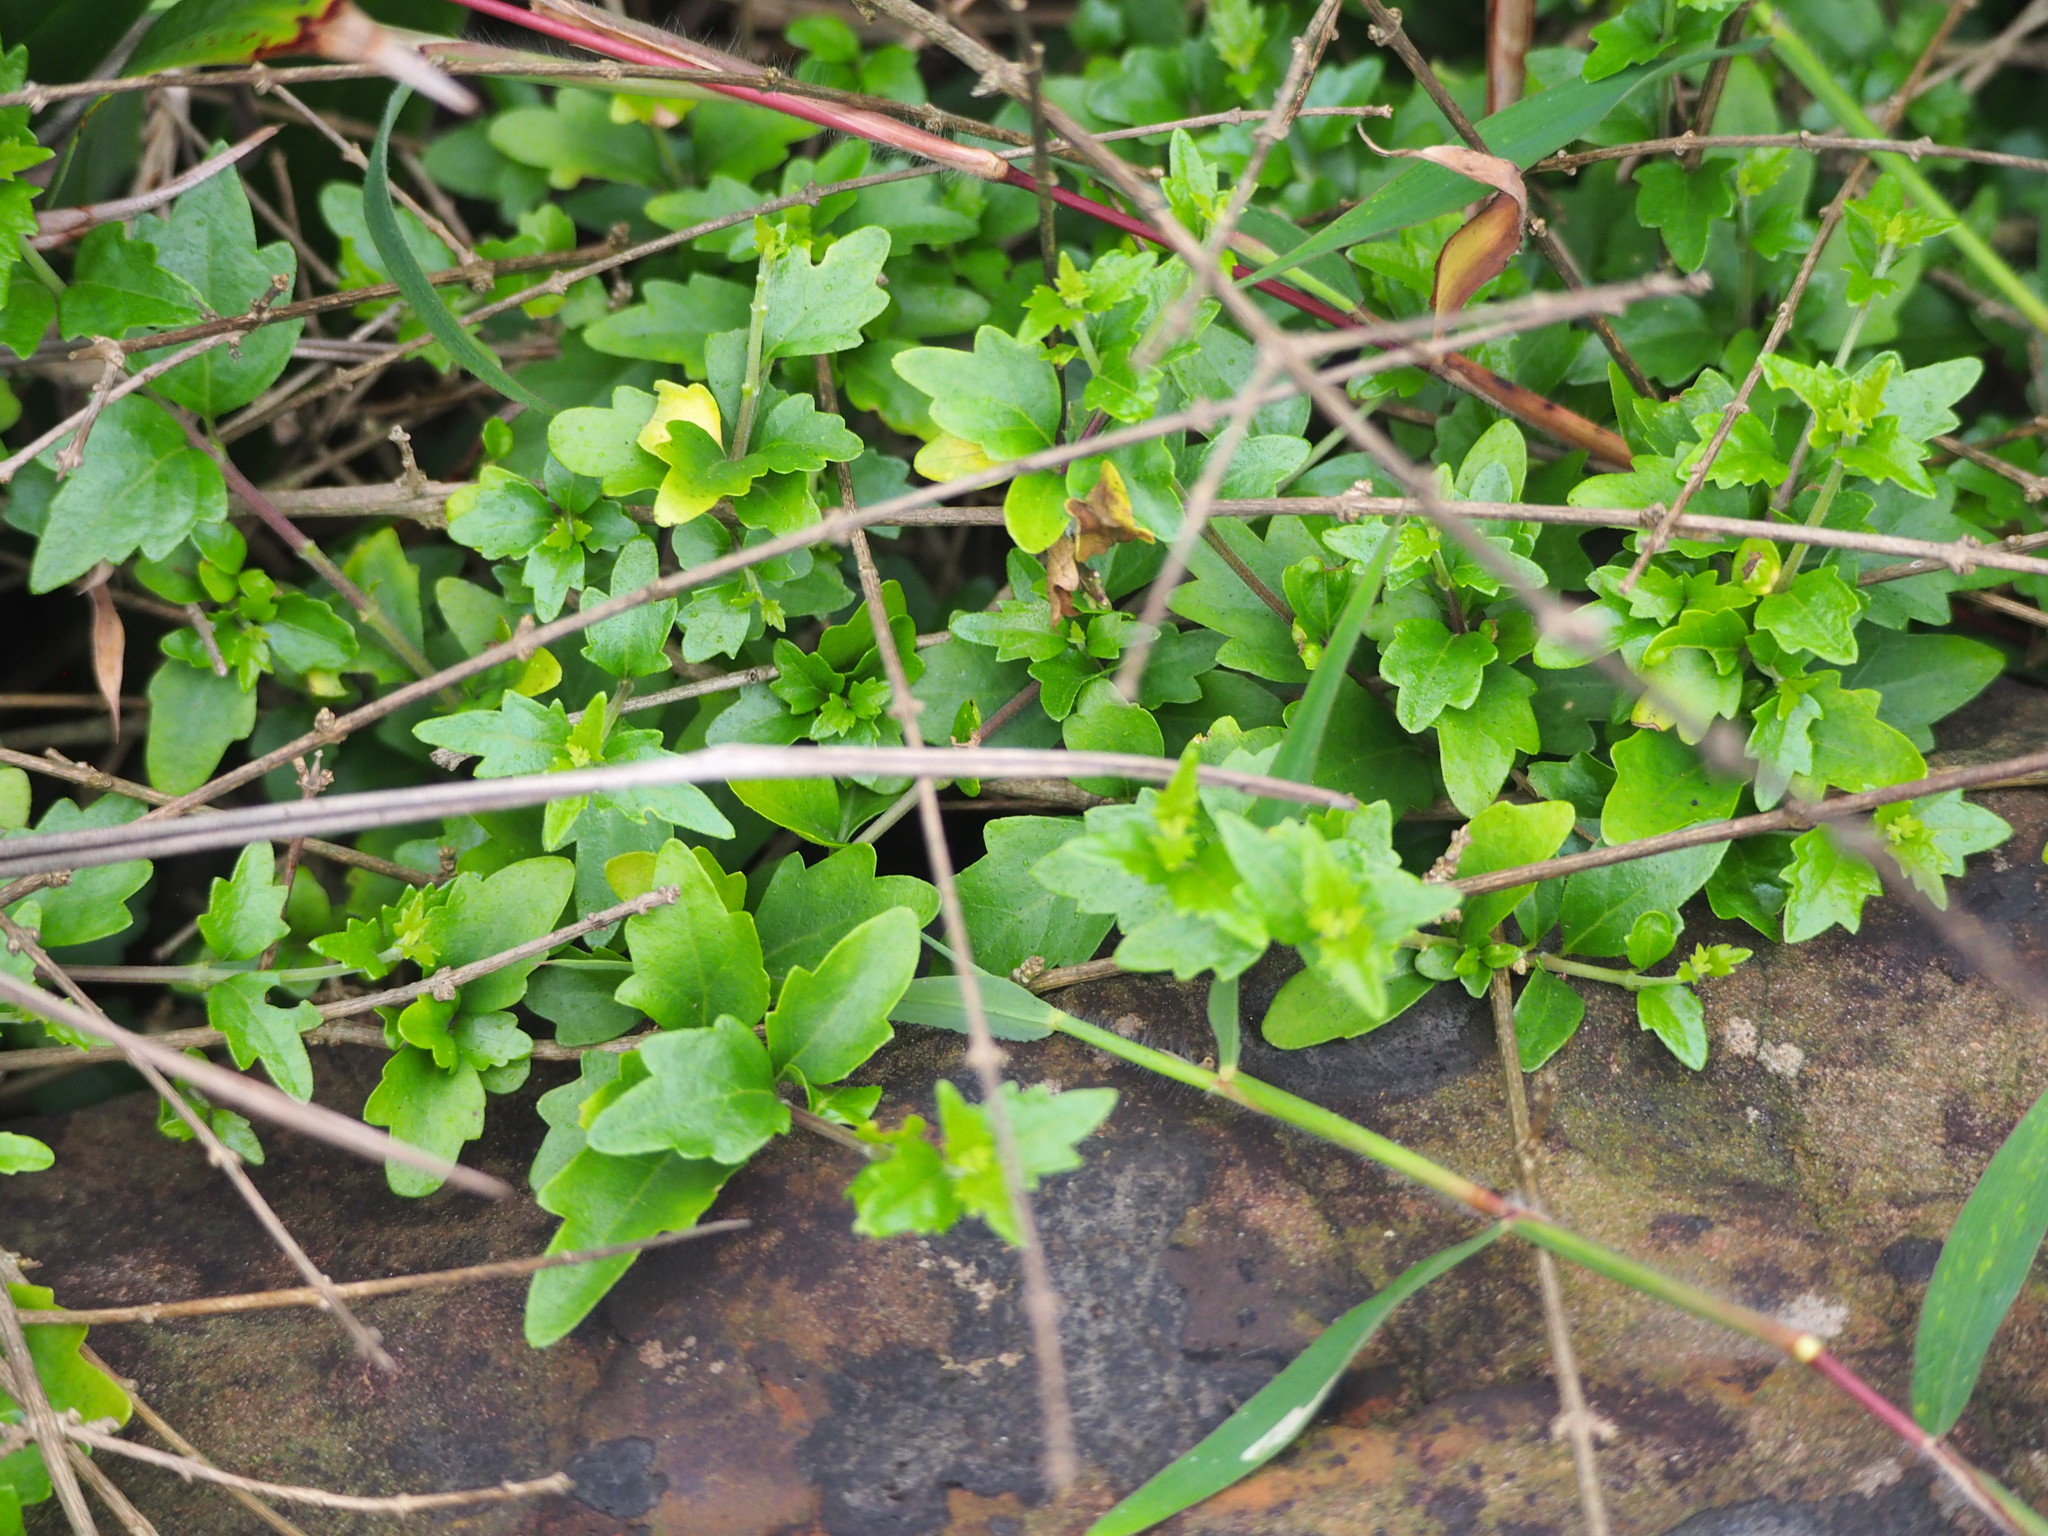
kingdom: Plantae
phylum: Tracheophyta
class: Magnoliopsida
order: Malvales
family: Malvaceae
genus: Hibiscus
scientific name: Hibiscus syriacus
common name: Syrian ketmia
